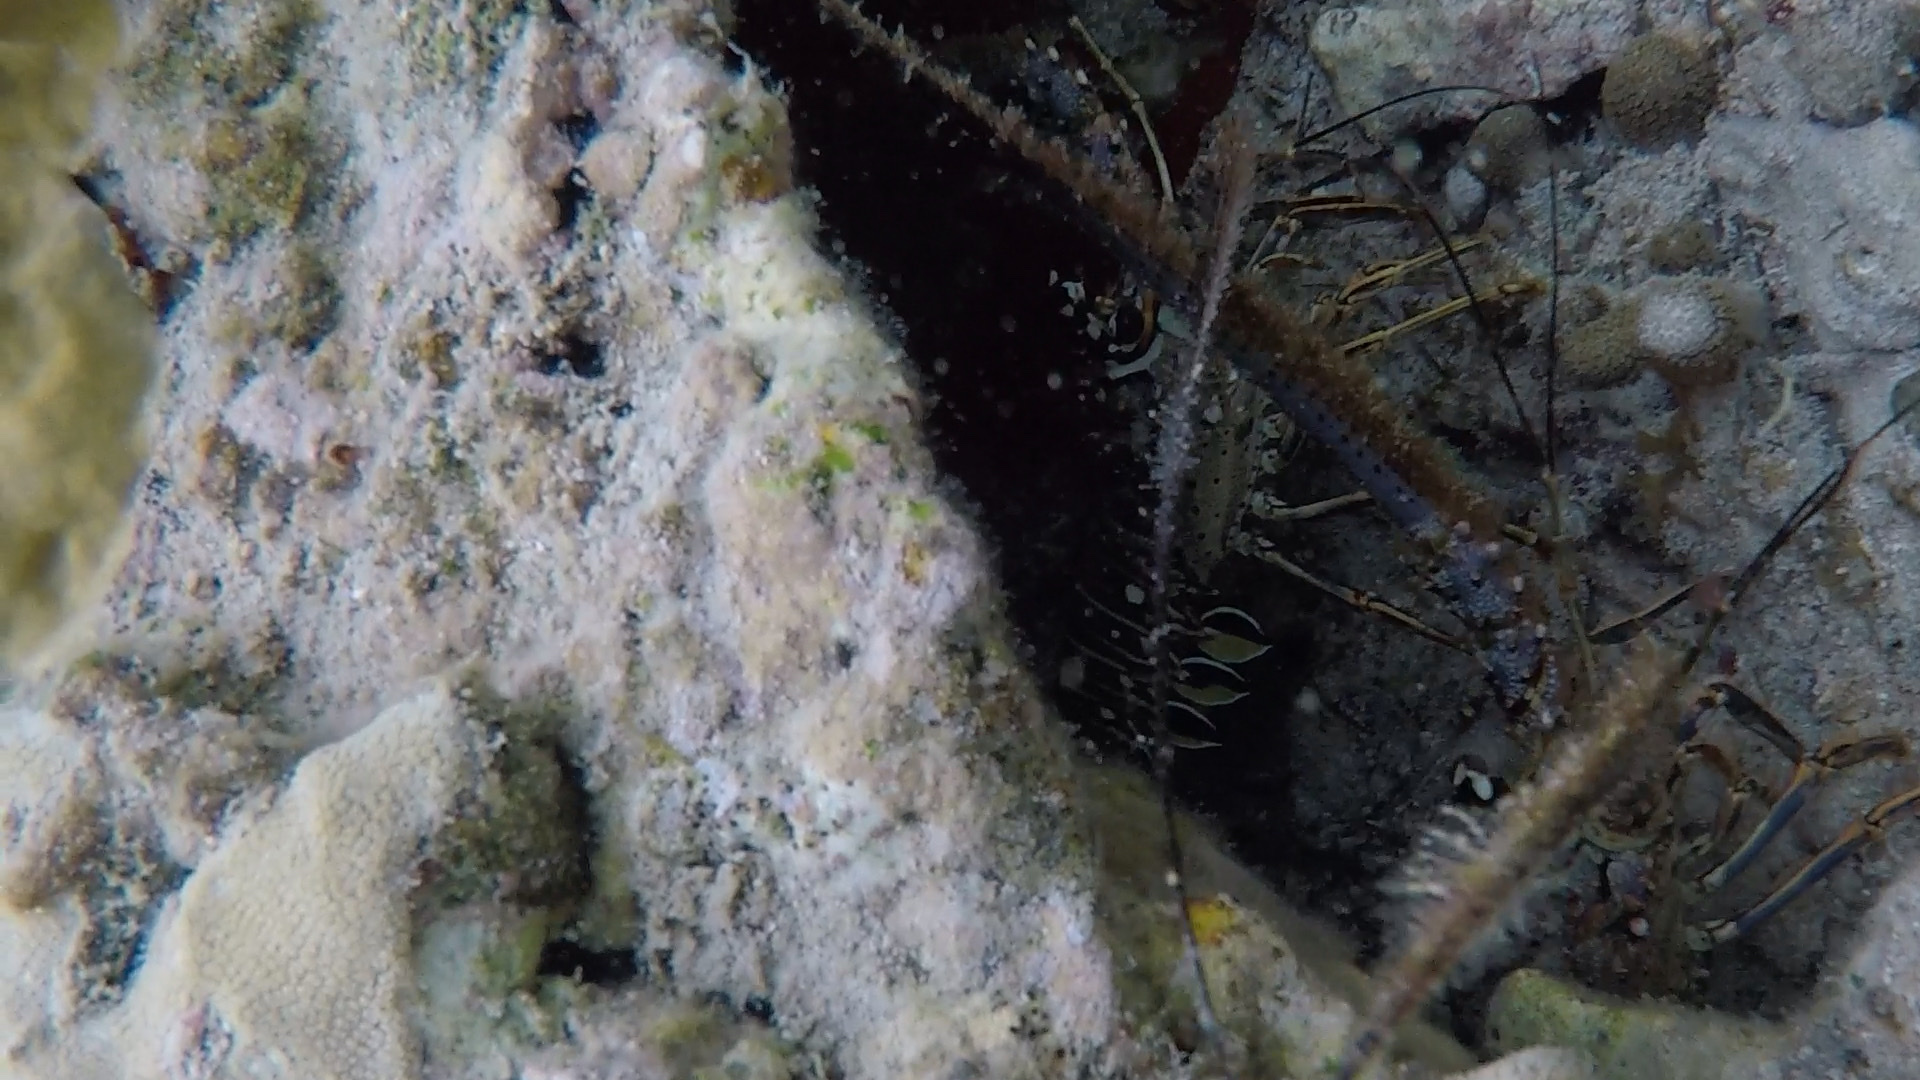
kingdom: Animalia
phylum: Arthropoda
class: Malacostraca
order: Decapoda
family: Palinuridae
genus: Panulirus
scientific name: Panulirus argus
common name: Caribbean spiny lobster
